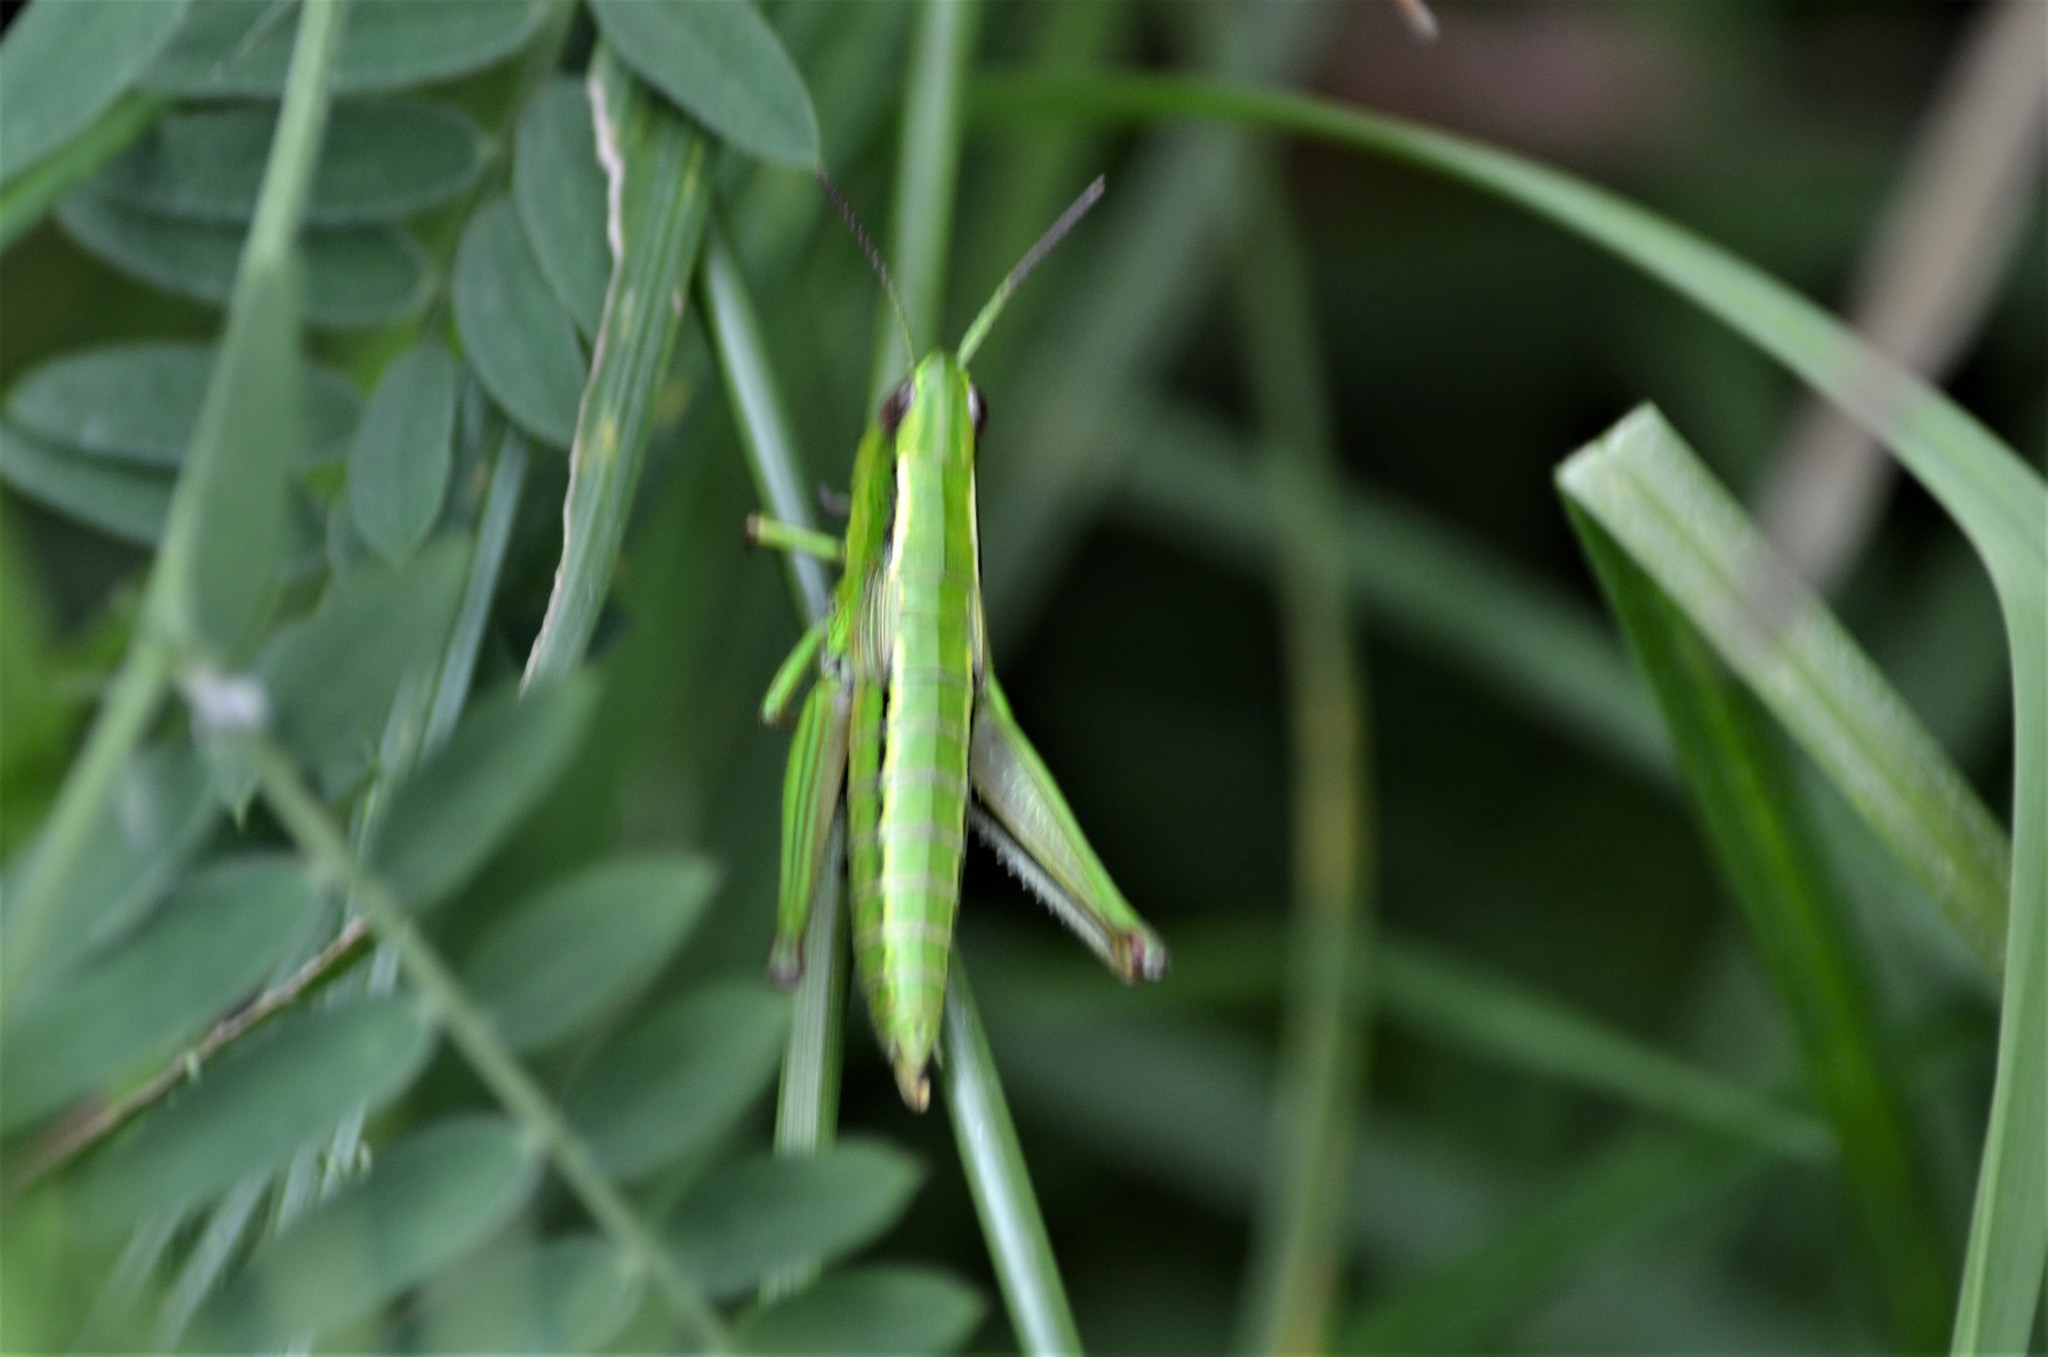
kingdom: Animalia
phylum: Arthropoda
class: Insecta
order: Orthoptera
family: Acrididae
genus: Euthystira
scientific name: Euthystira brachyptera
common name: Small gold grasshopper
